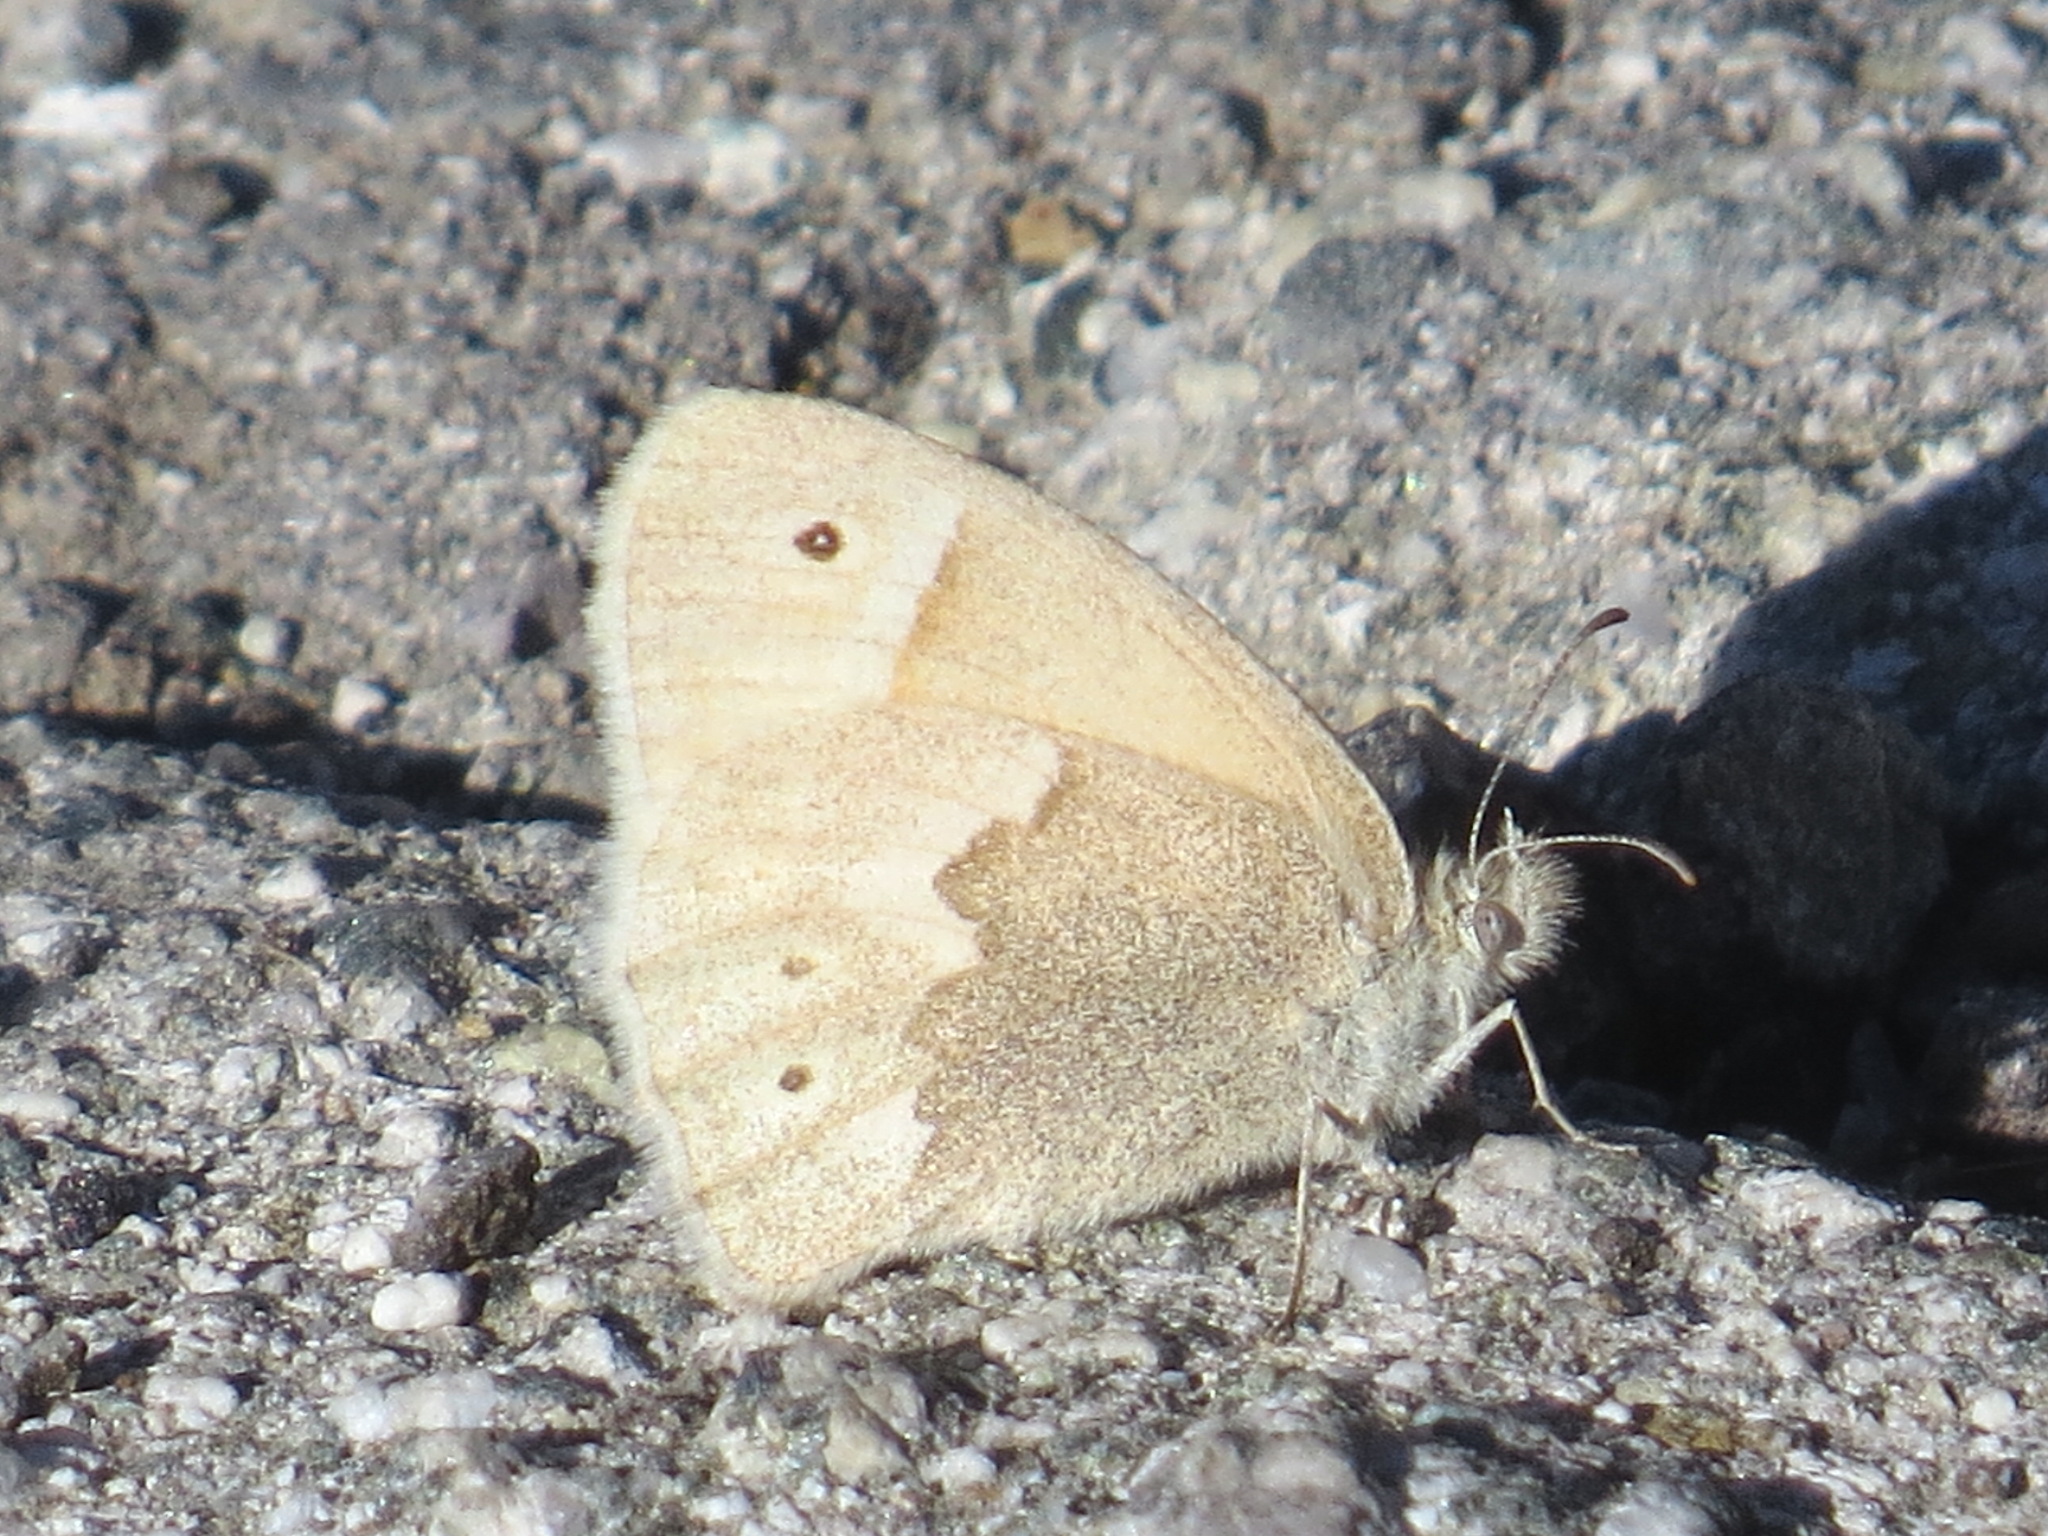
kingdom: Animalia
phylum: Arthropoda
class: Insecta
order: Lepidoptera
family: Nymphalidae
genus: Coenonympha
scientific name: Coenonympha california
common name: Common ringlet
